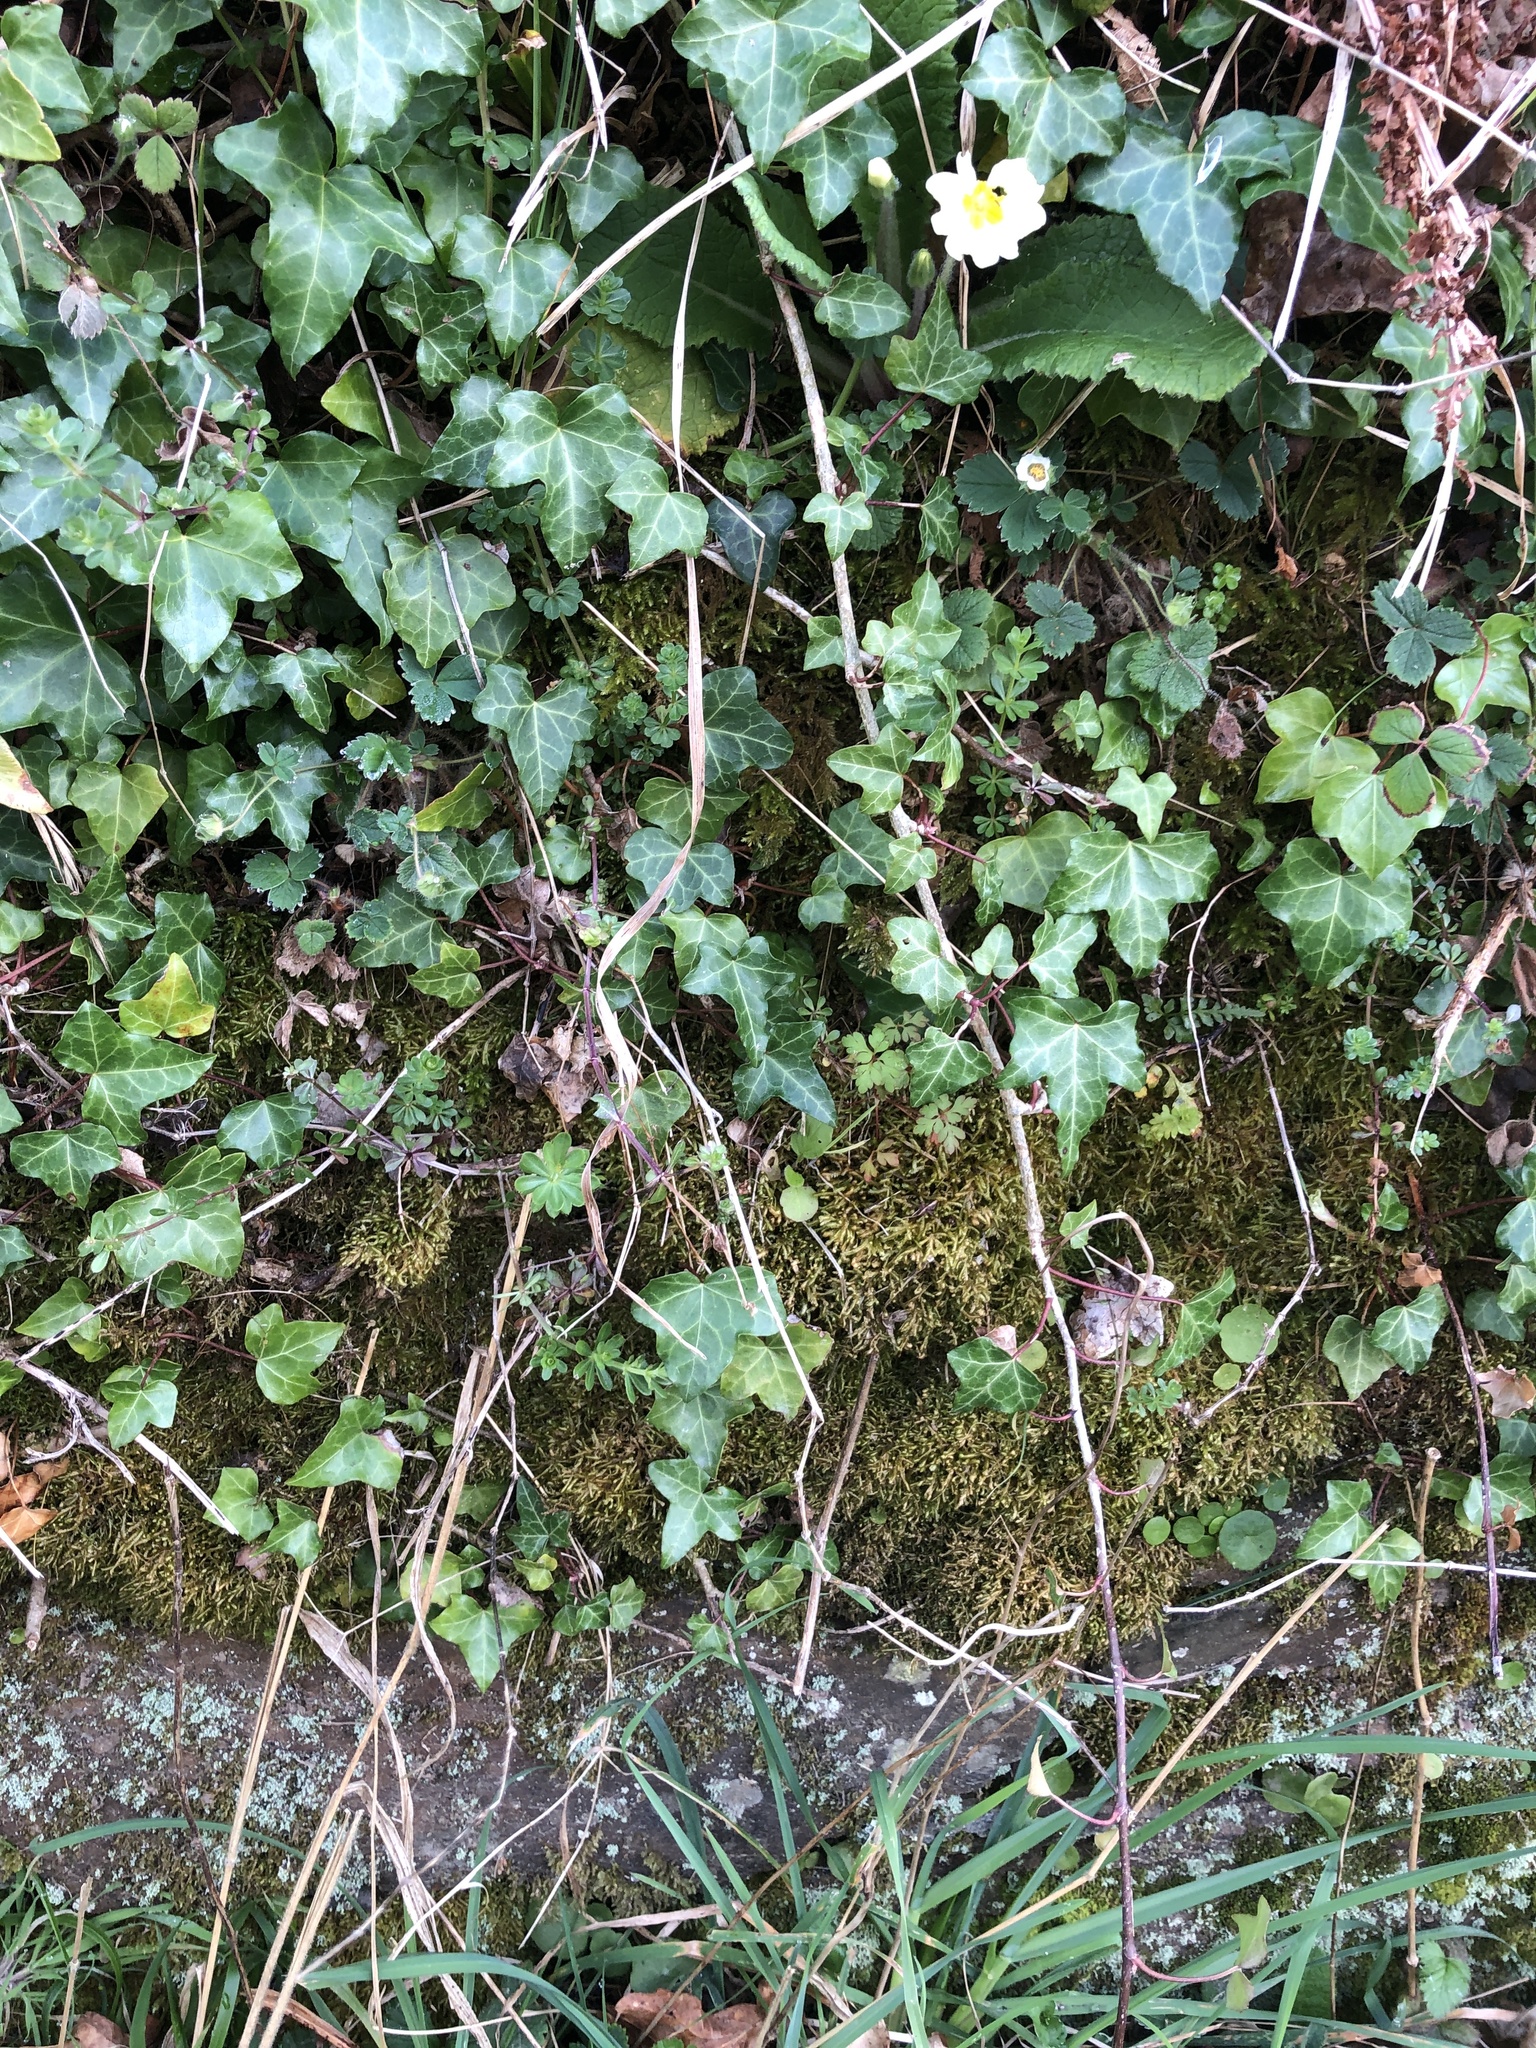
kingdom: Plantae
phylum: Bryophyta
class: Bryopsida
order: Hypnales
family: Neckeraceae
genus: Homalia
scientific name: Homalia trichomanoides
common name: Lime homalia moss
